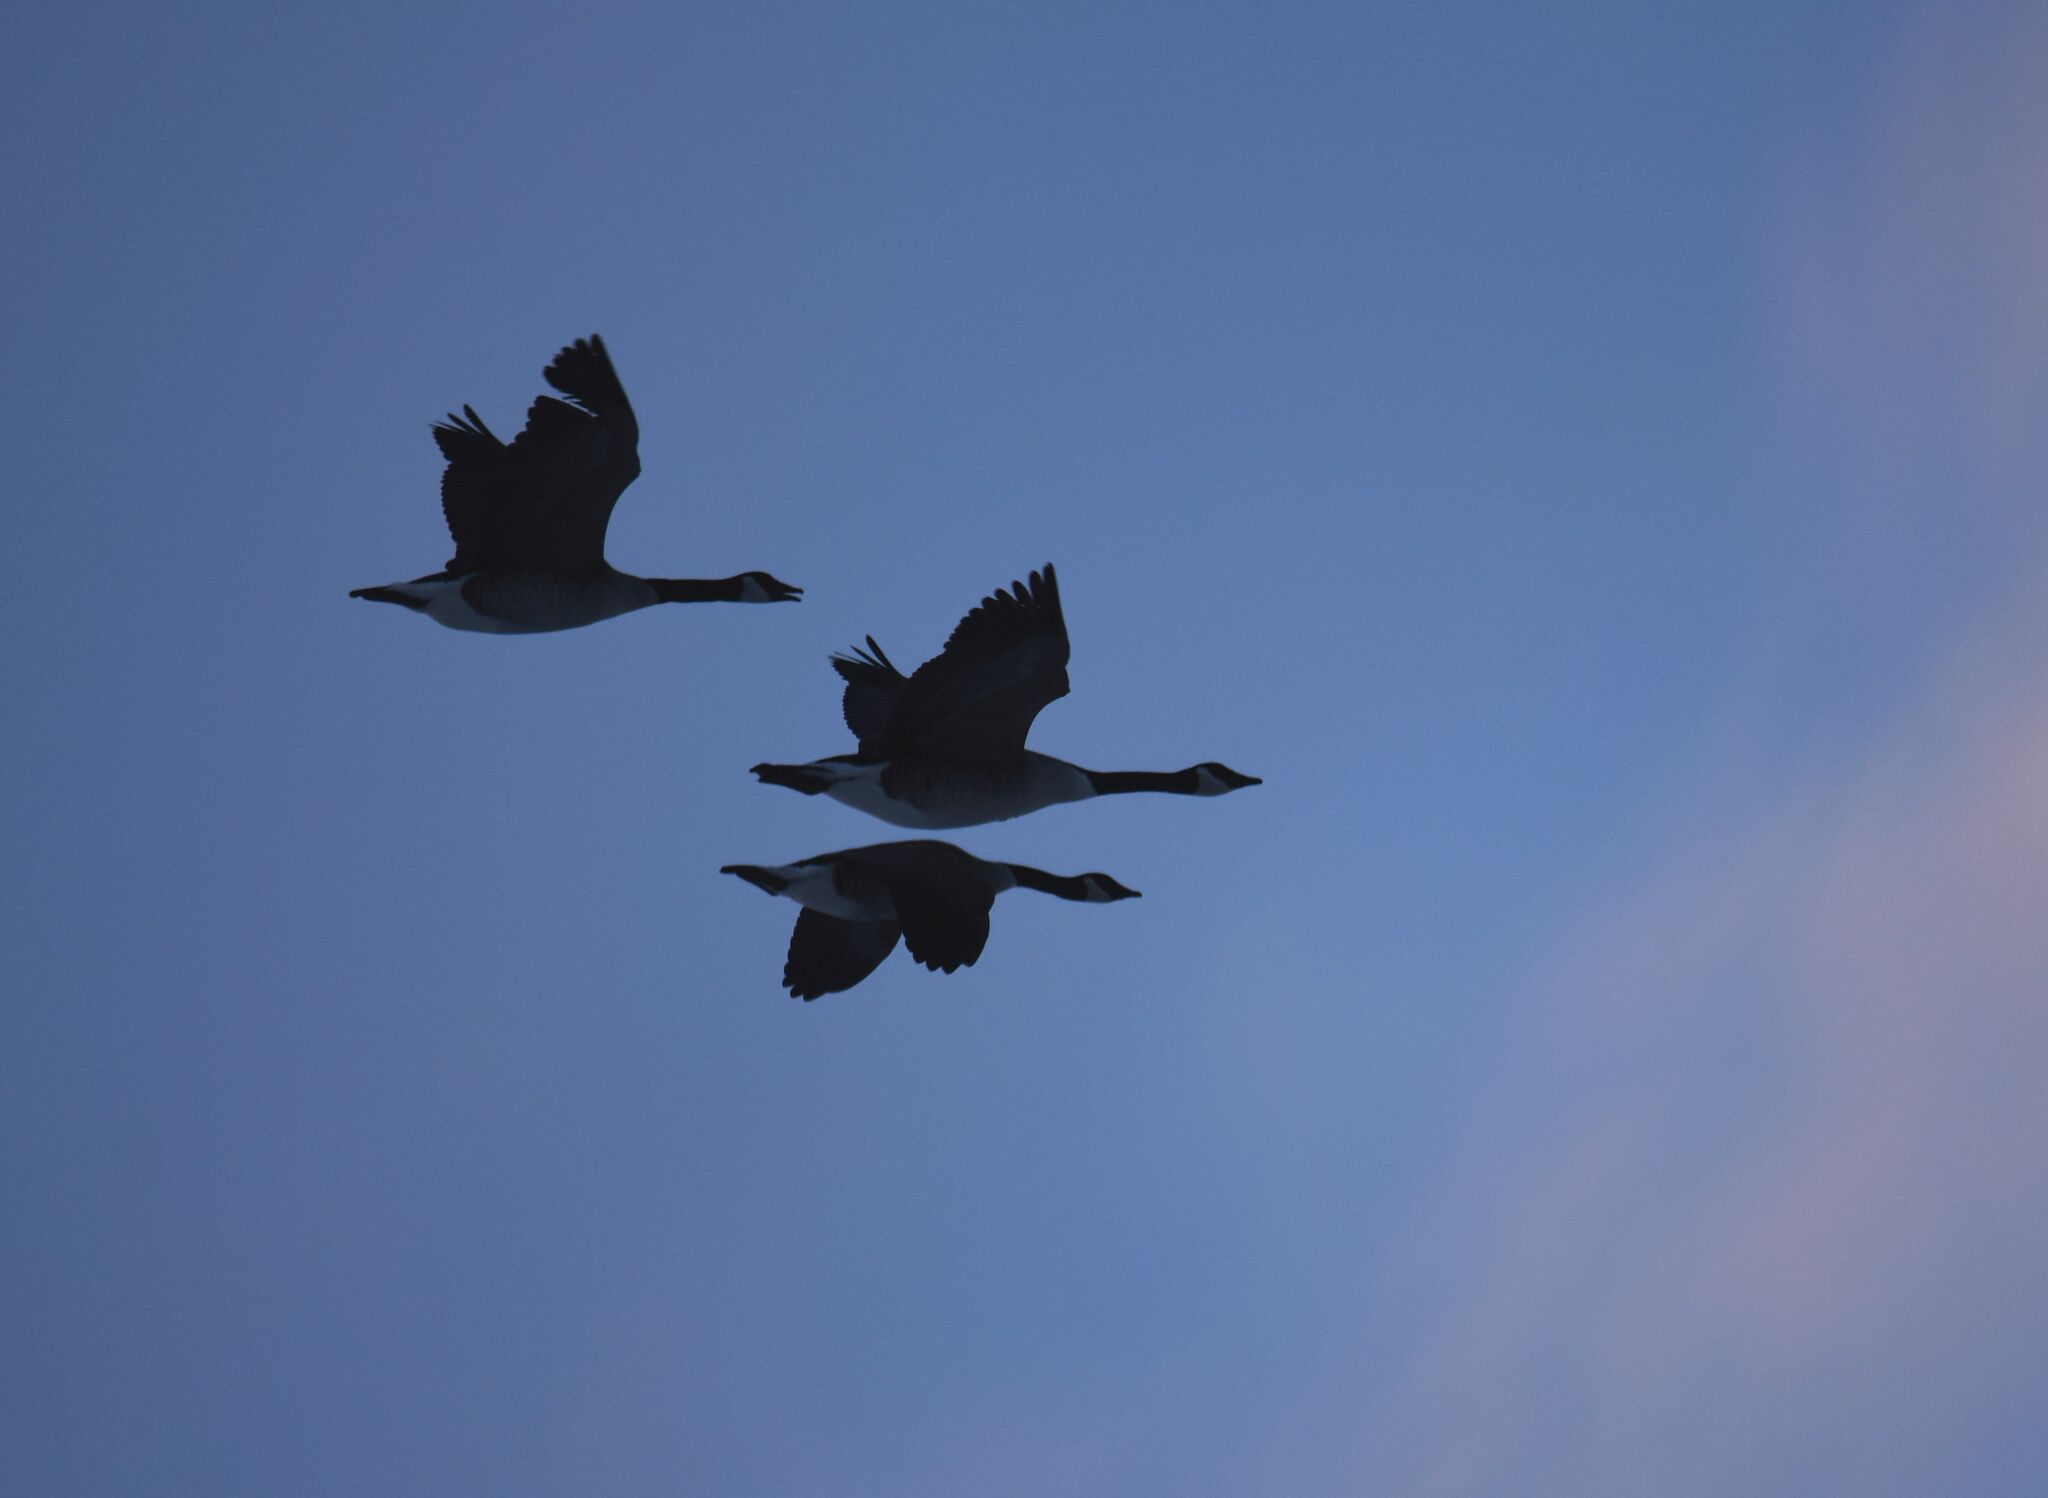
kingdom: Animalia
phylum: Chordata
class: Aves
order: Anseriformes
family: Anatidae
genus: Branta
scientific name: Branta canadensis
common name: Canada goose
